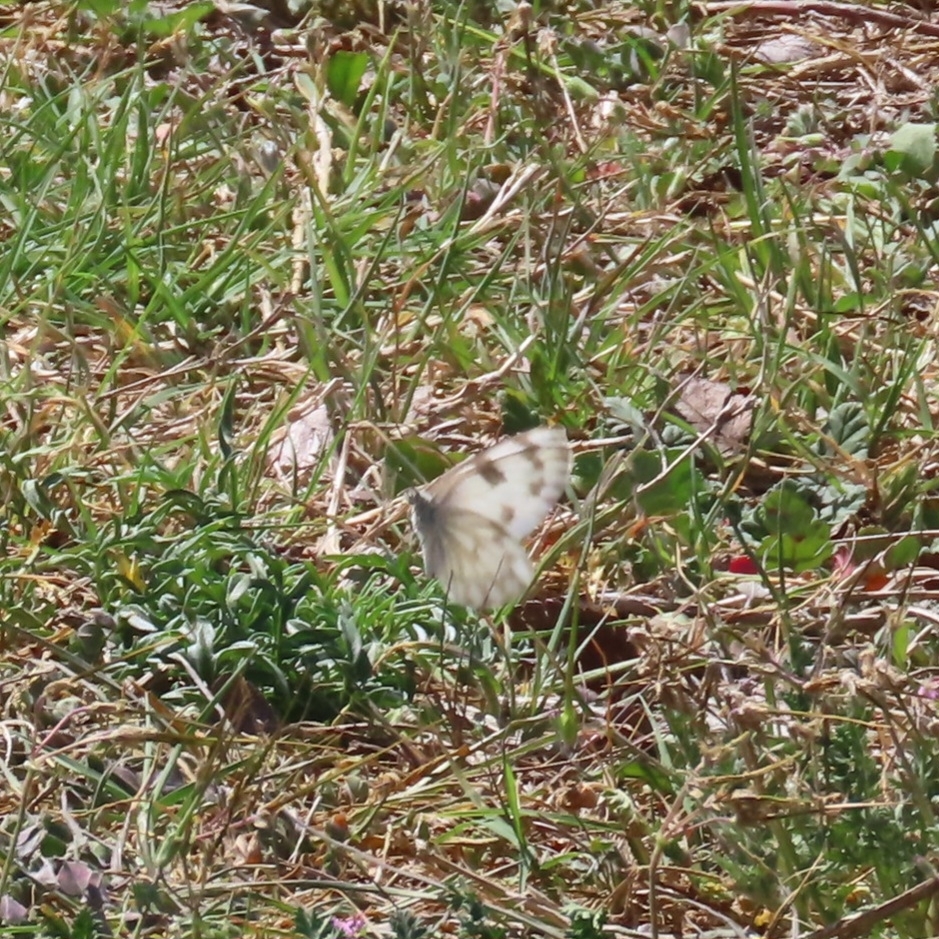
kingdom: Animalia
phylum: Arthropoda
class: Insecta
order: Lepidoptera
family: Pieridae
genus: Pontia
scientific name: Pontia protodice
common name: Checkered white
